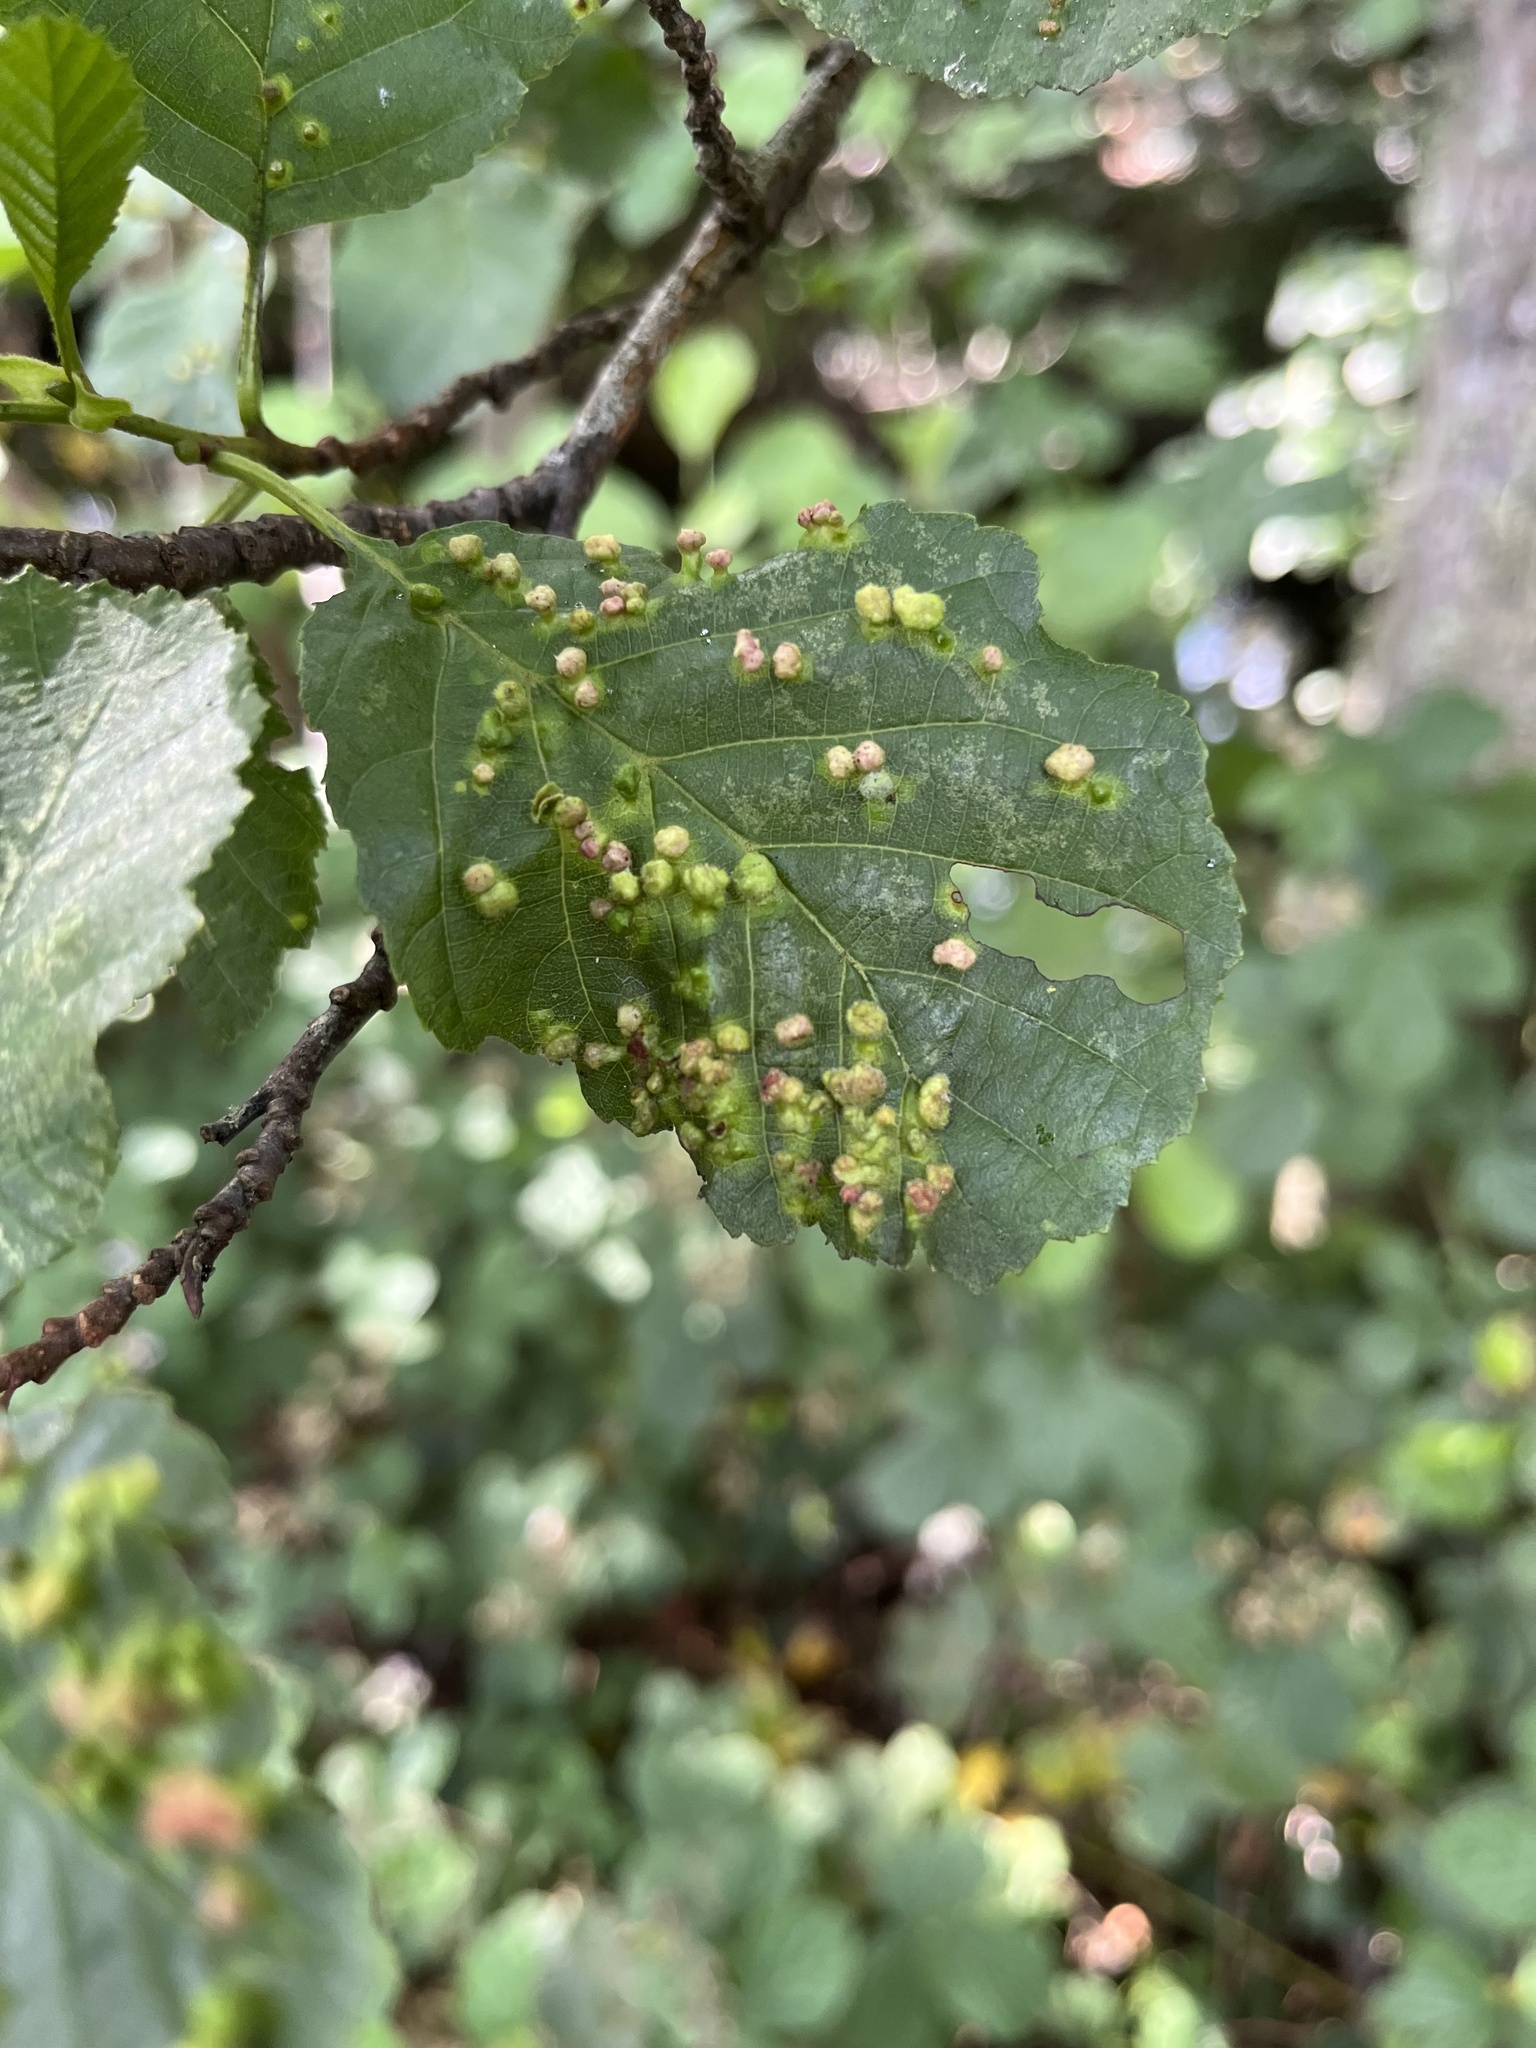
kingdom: Animalia
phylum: Arthropoda
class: Arachnida
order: Trombidiformes
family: Eriophyidae
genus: Eriophyes
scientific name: Eriophyes laevis
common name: Alder leaf gall mite
